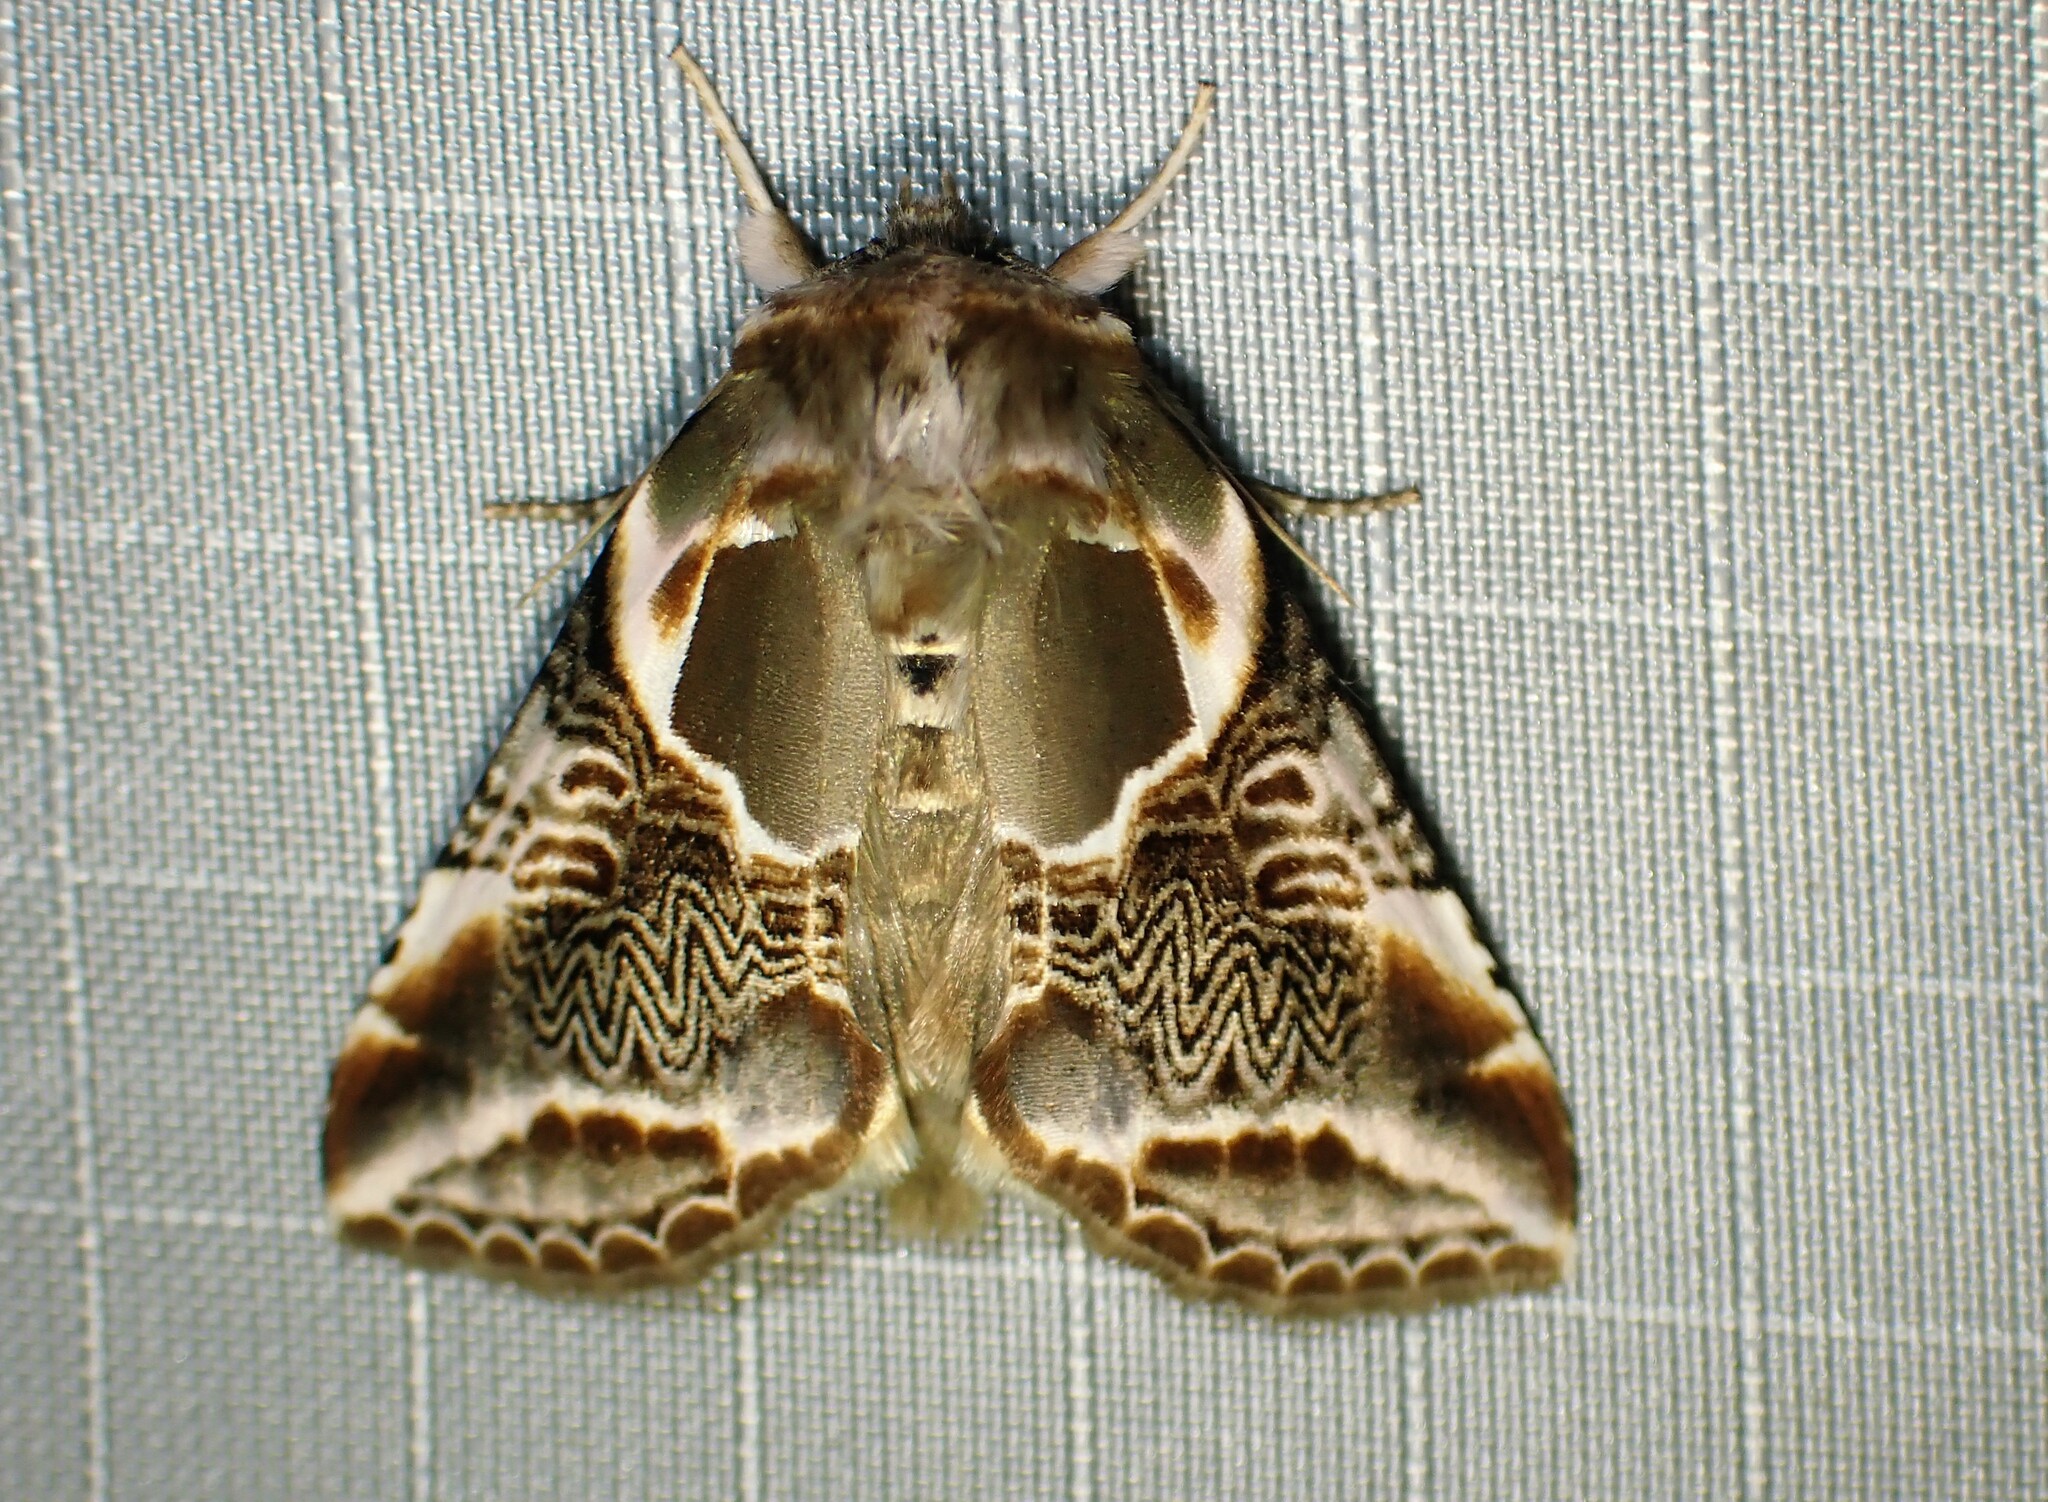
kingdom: Animalia
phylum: Arthropoda
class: Insecta
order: Lepidoptera
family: Drepanidae
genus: Habrosyne
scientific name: Habrosyne scripta
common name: Lettered habrosyne moth
